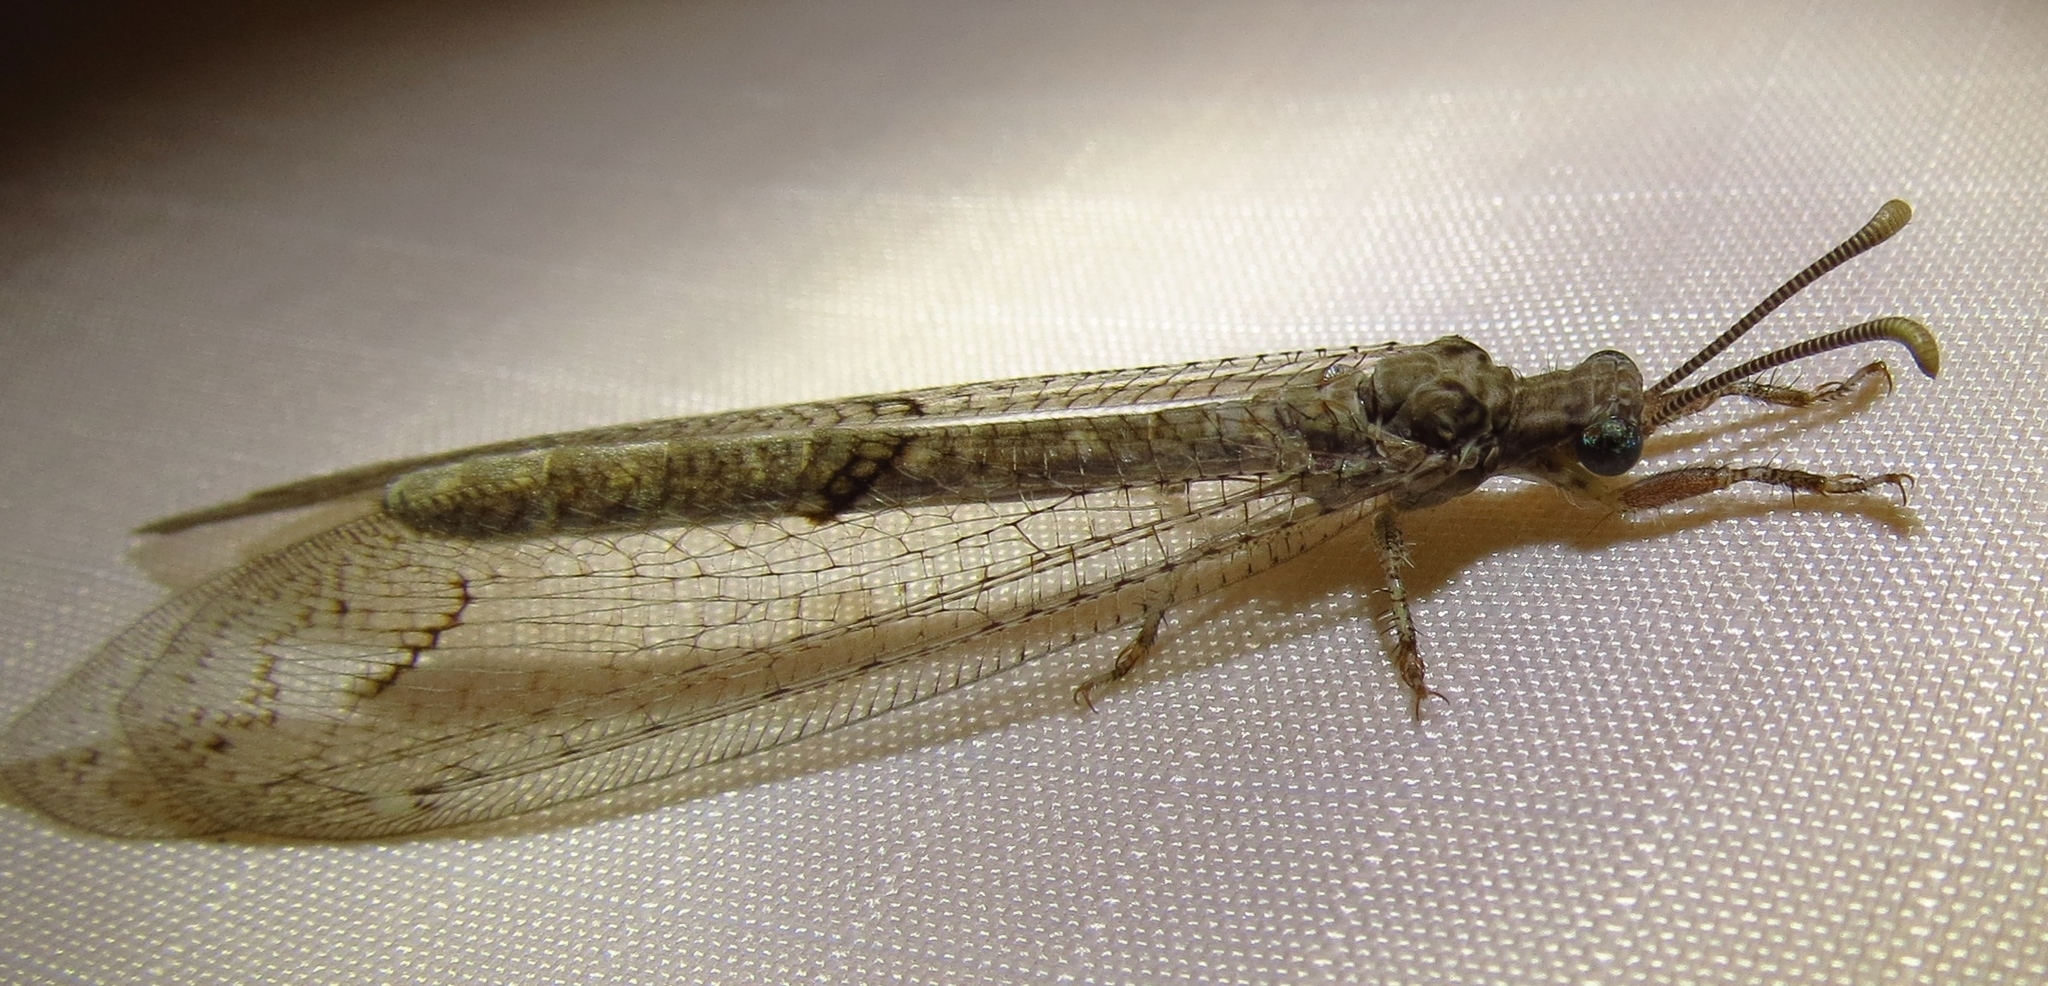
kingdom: Animalia
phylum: Arthropoda
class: Insecta
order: Neuroptera
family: Myrmeleontidae
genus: Euptilon
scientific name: Euptilon ornatum
